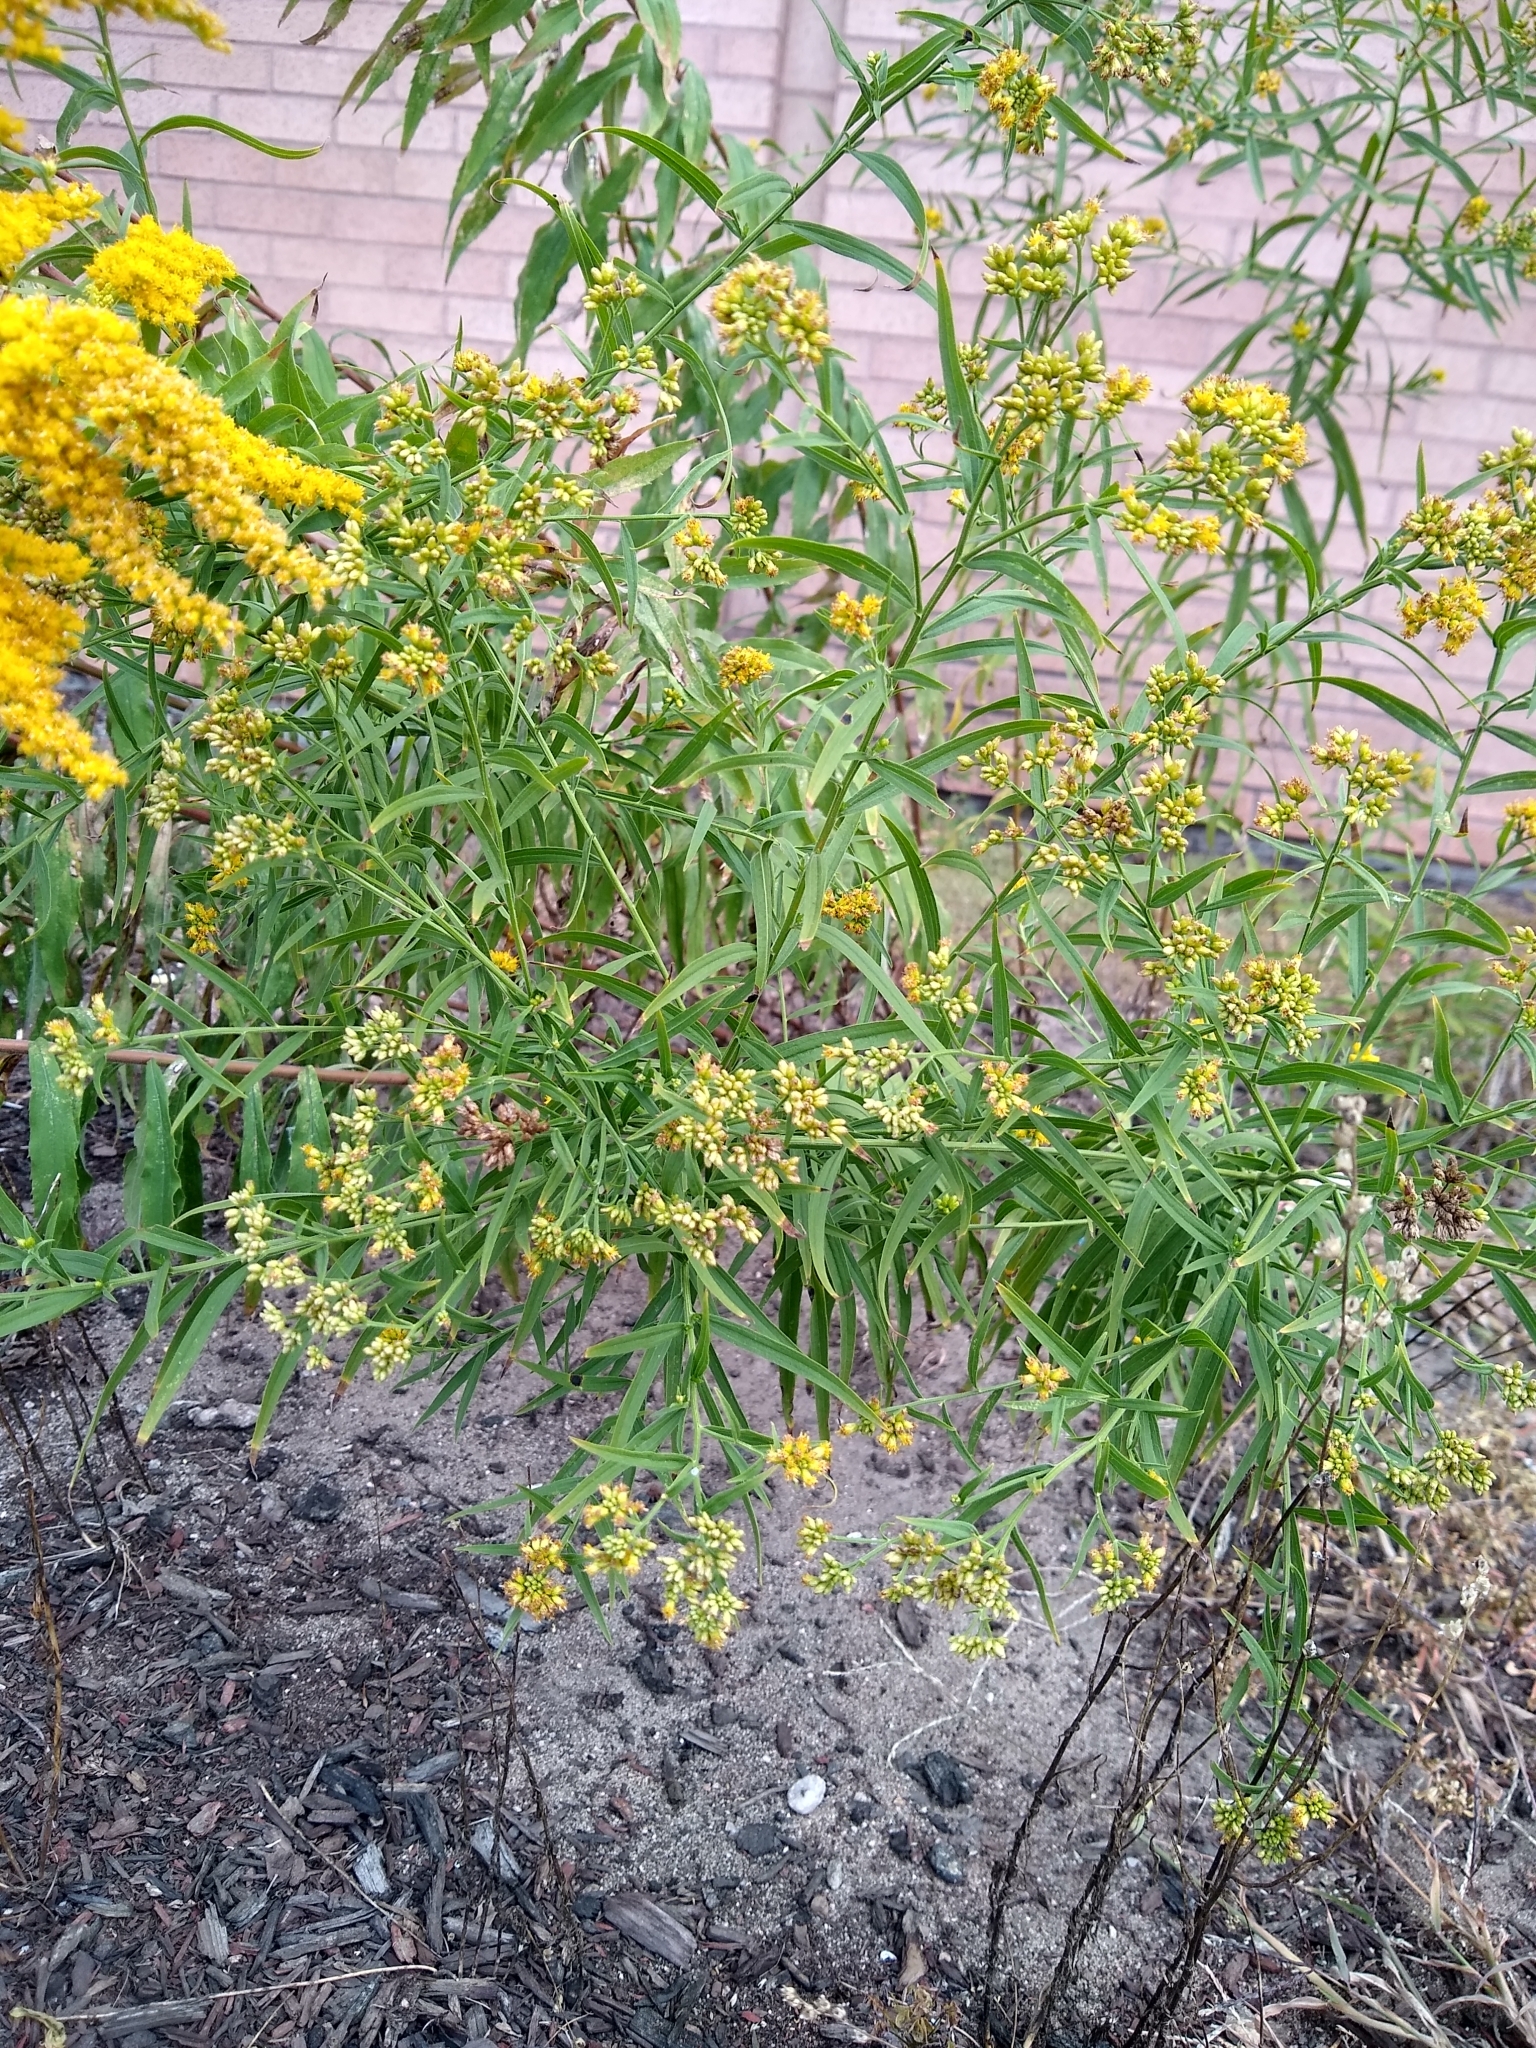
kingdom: Plantae
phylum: Tracheophyta
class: Magnoliopsida
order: Asterales
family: Asteraceae
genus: Euthamia
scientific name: Euthamia graminifolia
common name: Common goldentop
